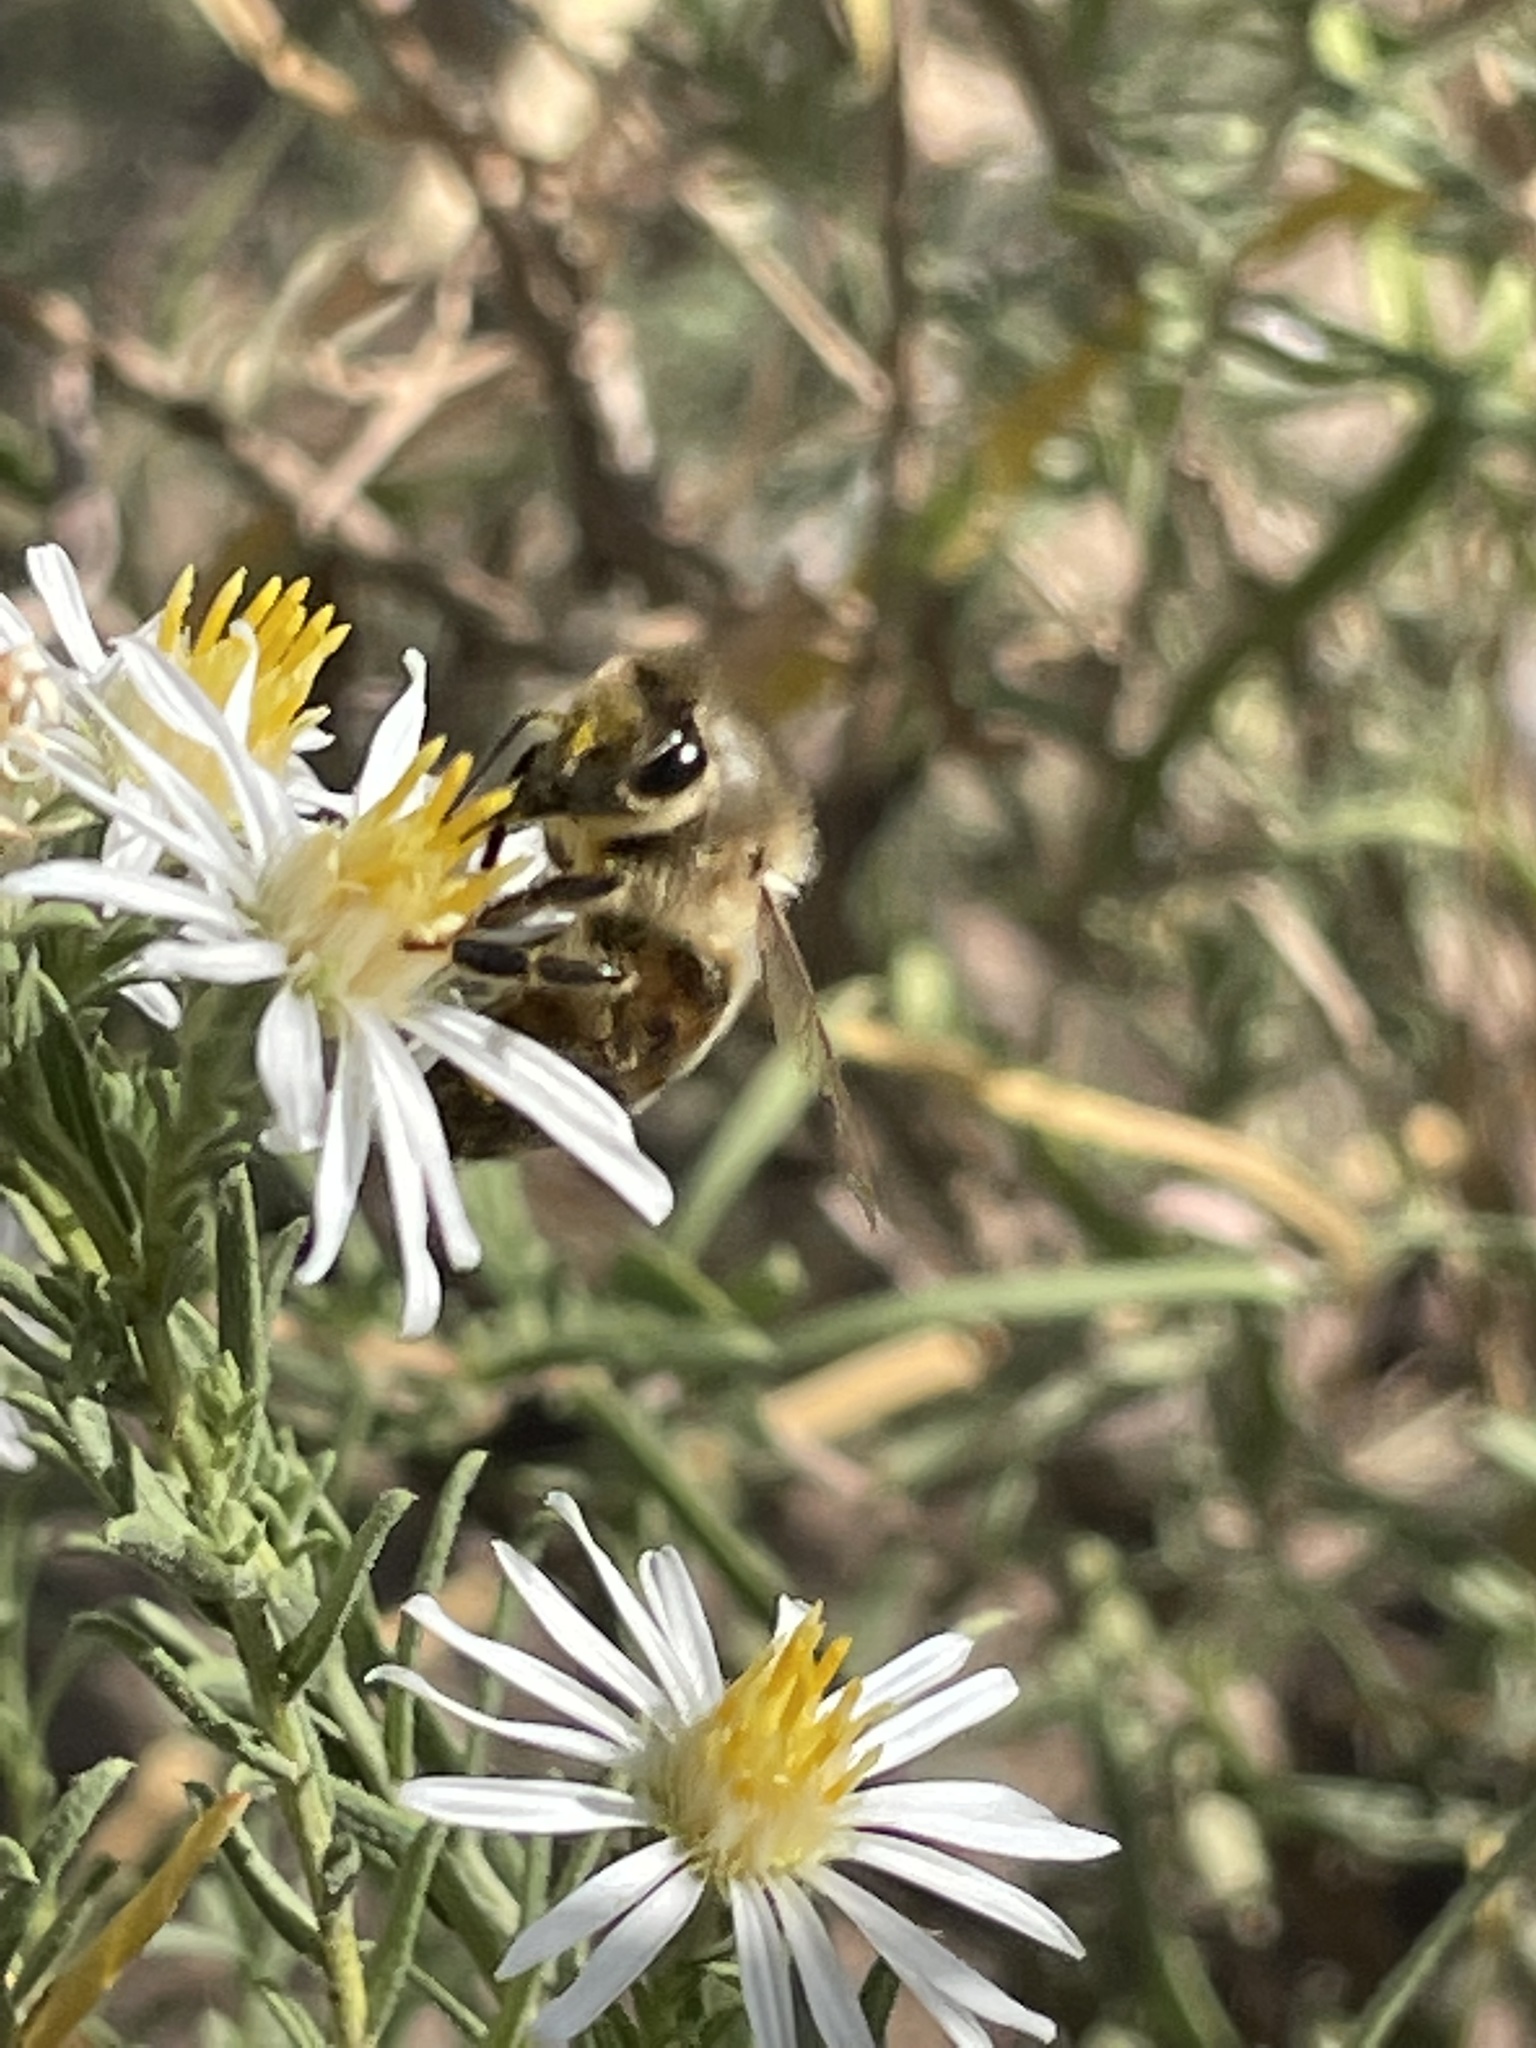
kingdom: Animalia
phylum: Arthropoda
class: Insecta
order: Hymenoptera
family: Apidae
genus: Apis
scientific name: Apis mellifera
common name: Honey bee
